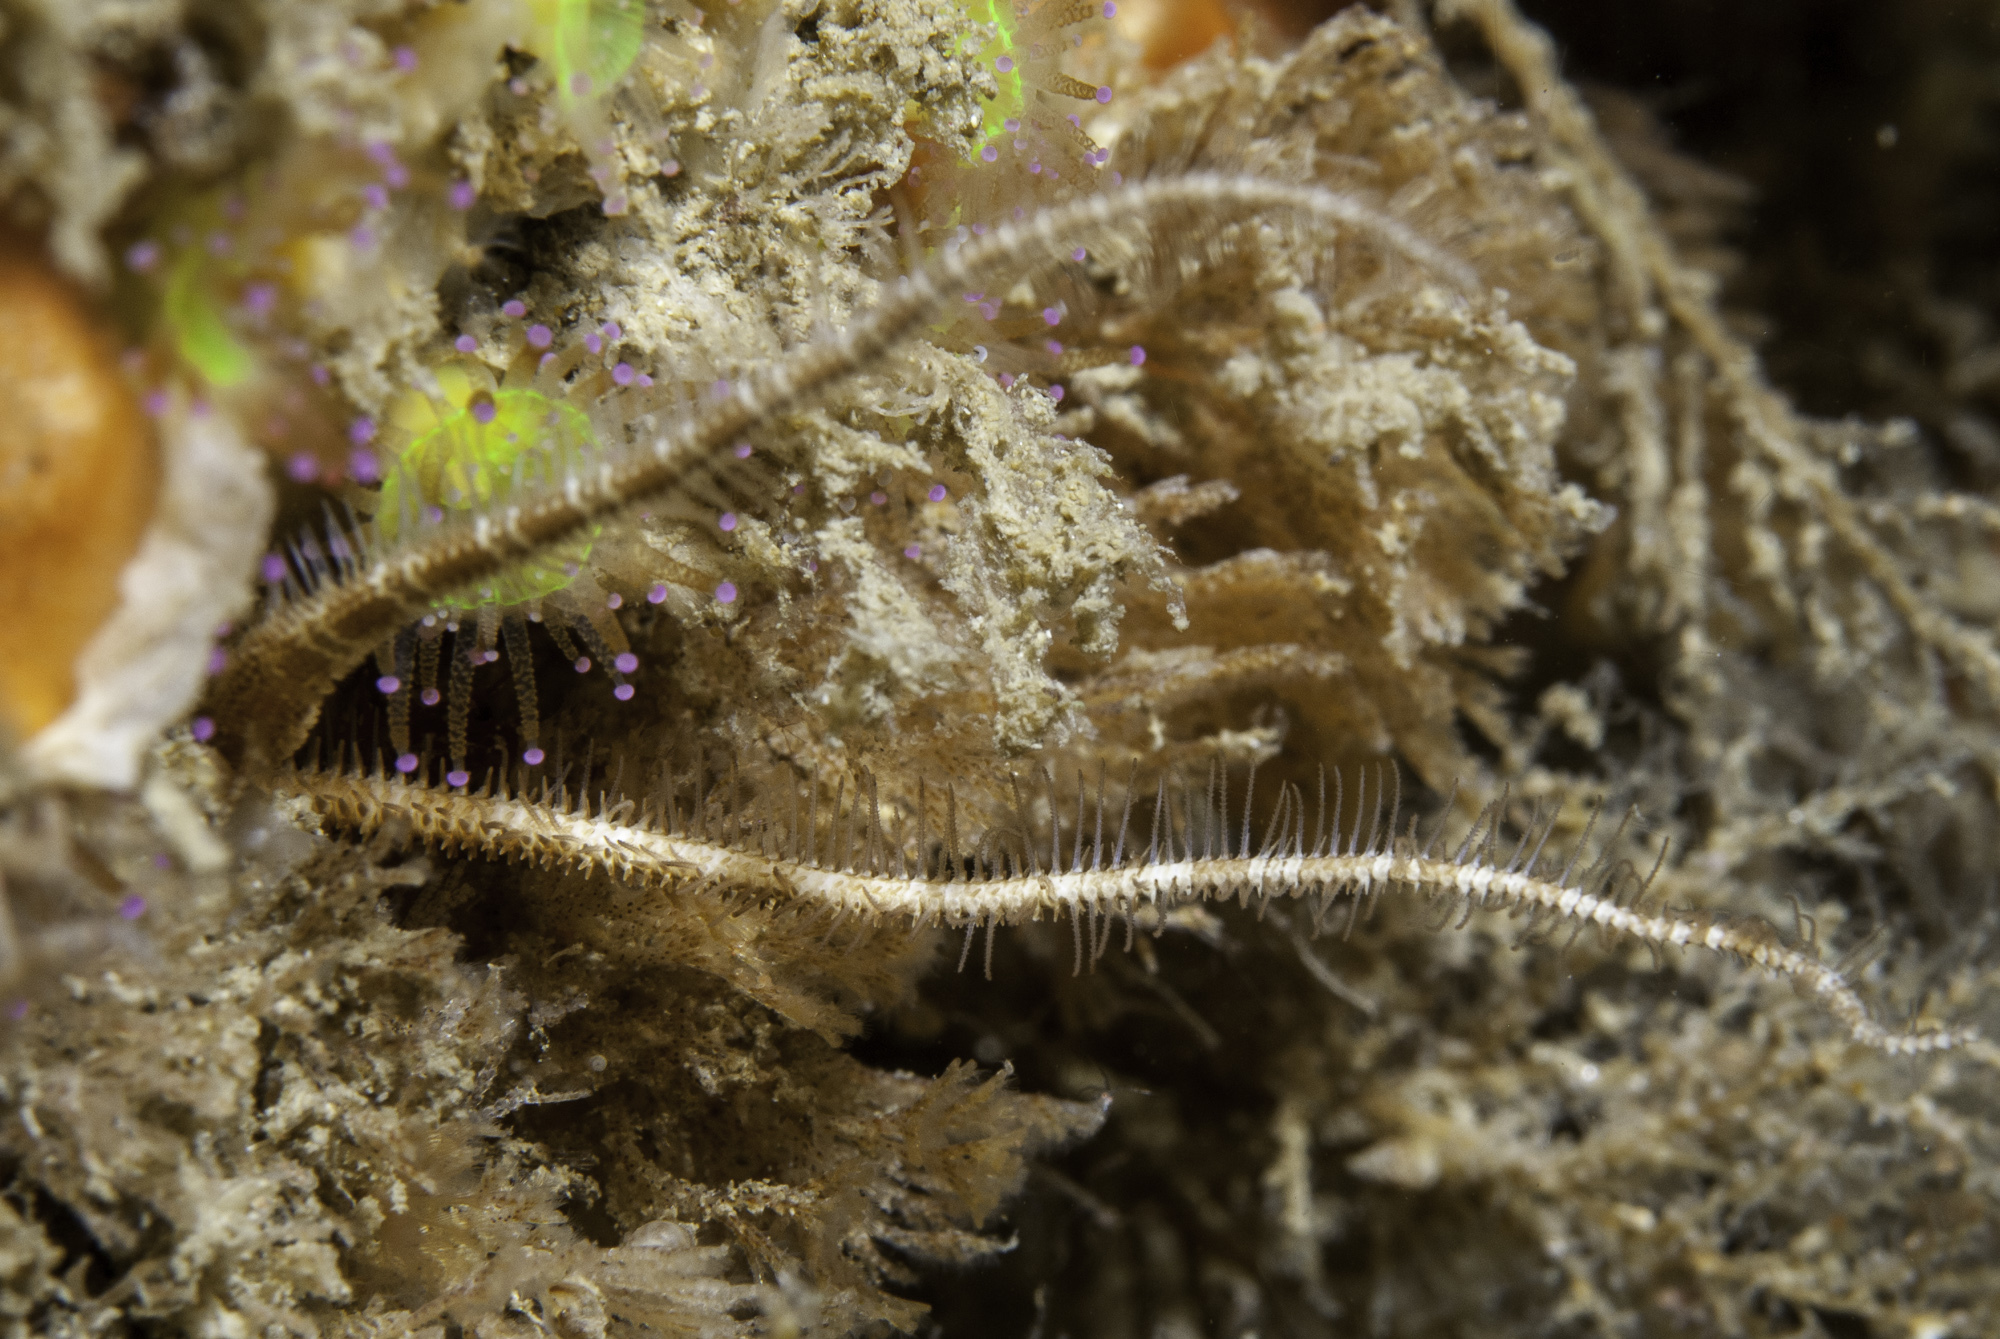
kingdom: Animalia
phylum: Echinodermata
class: Ophiuroidea
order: Amphilepidida
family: Ophiopsilidae
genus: Ophiopsila
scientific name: Ophiopsila aranea
